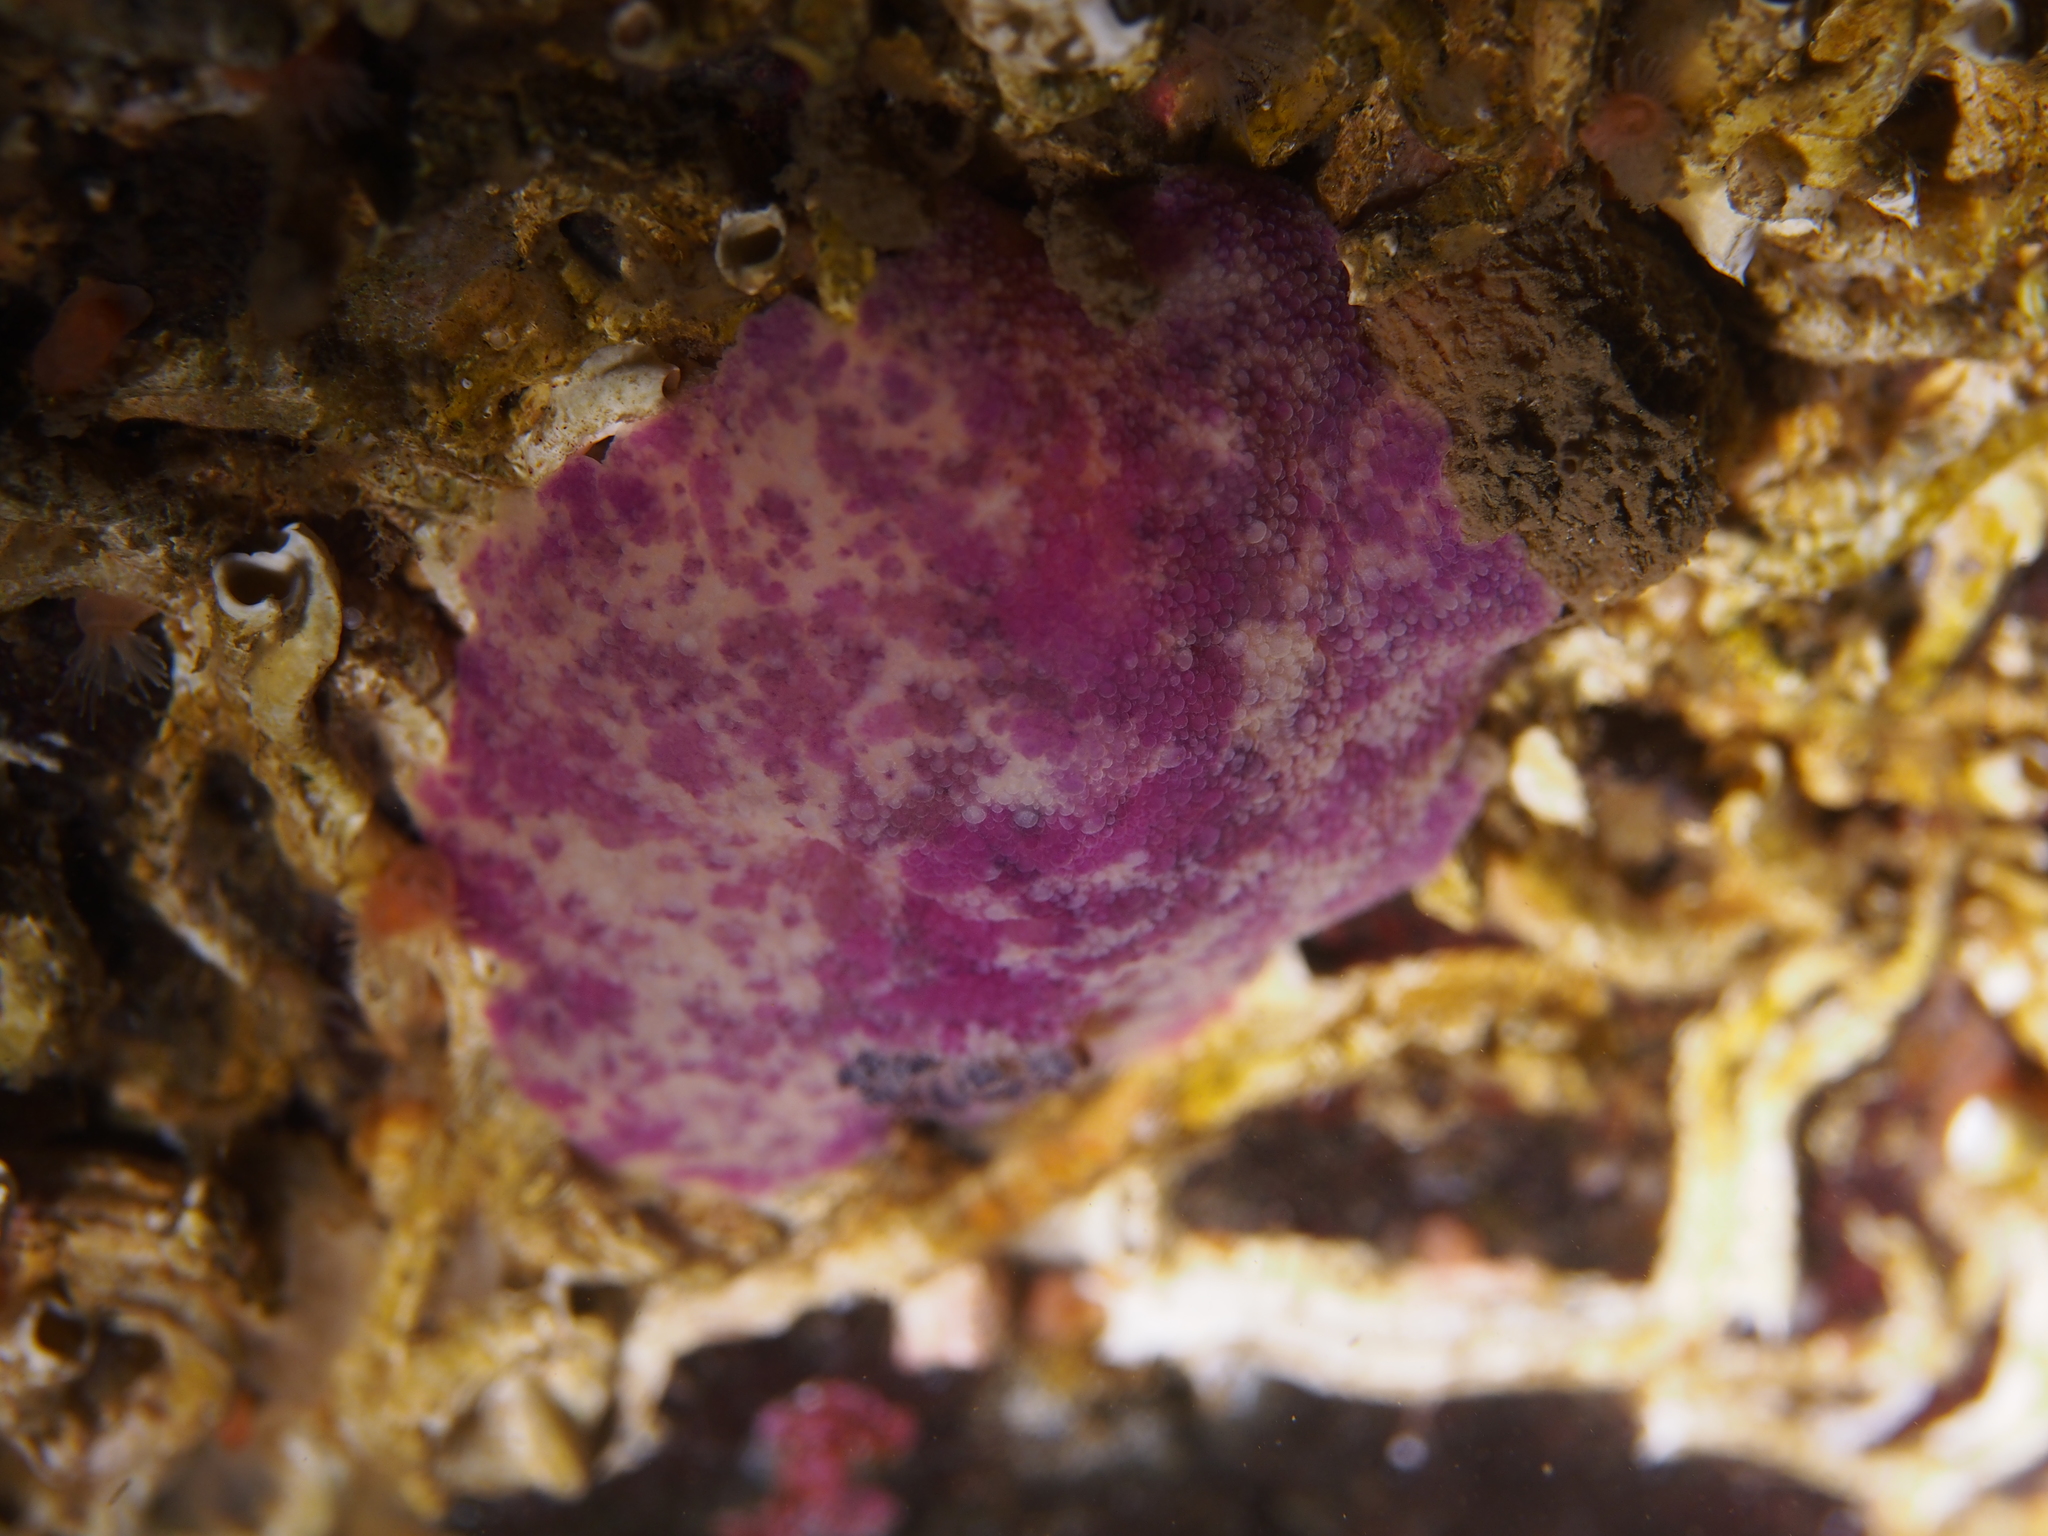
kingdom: Animalia
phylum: Mollusca
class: Gastropoda
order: Nudibranchia
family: Dorididae
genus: Doris
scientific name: Doris pseudoargus
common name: Sea lemon
